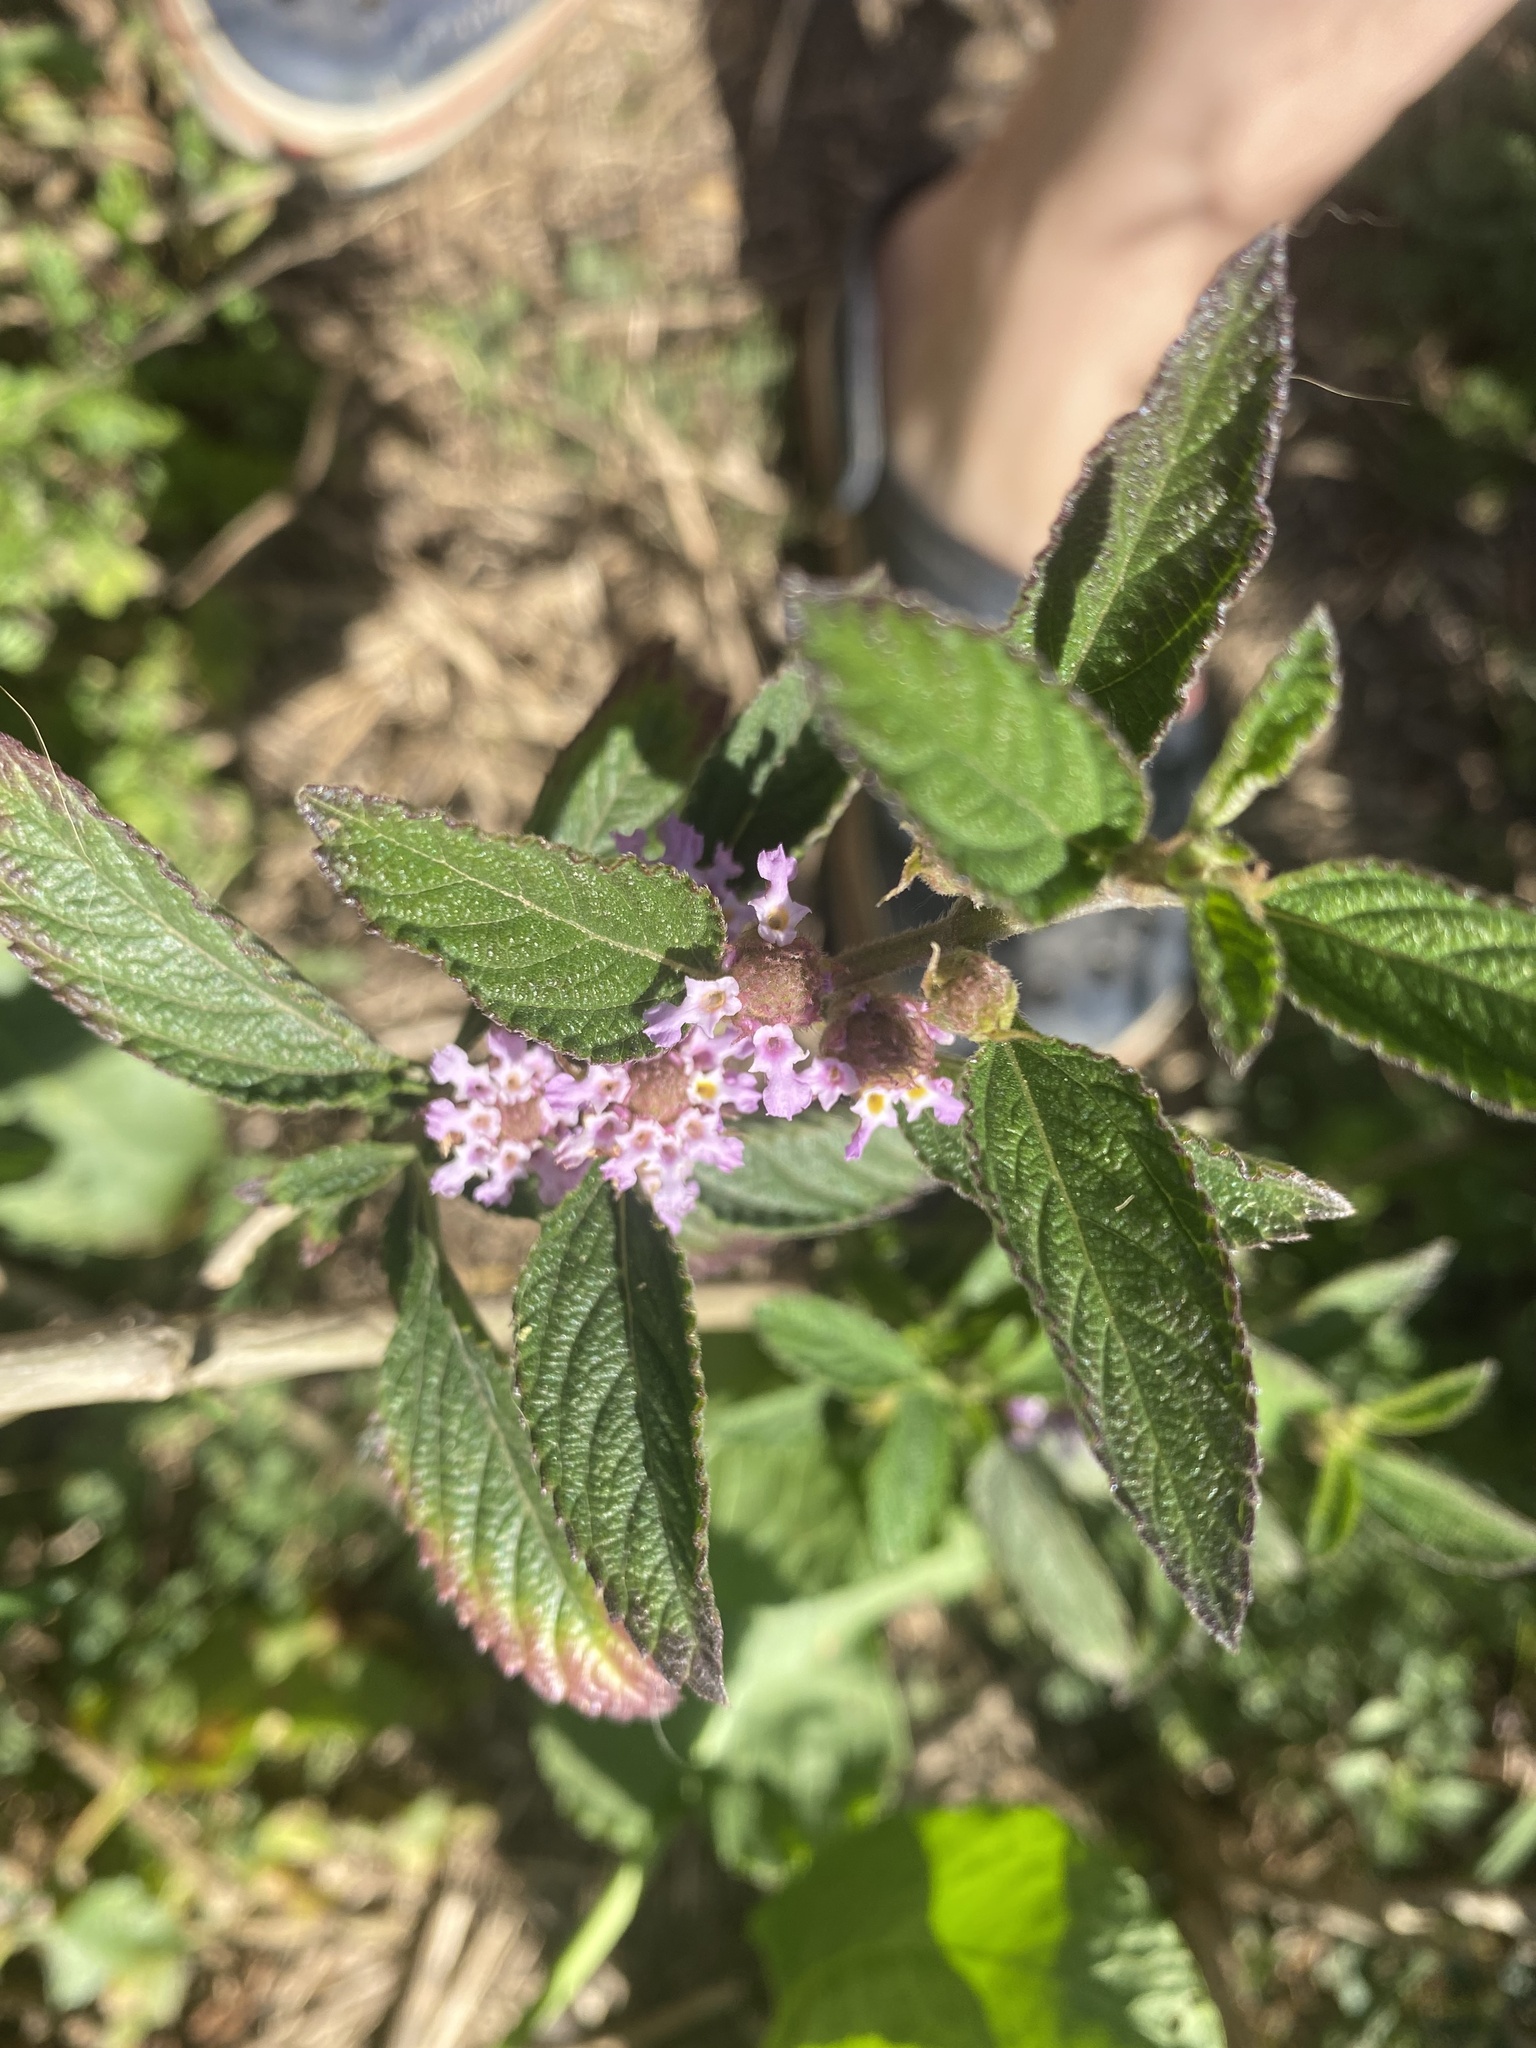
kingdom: Plantae
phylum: Tracheophyta
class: Magnoliopsida
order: Lamiales
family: Verbenaceae
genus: Lippia
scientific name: Lippia alba
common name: Bushy matgrass
